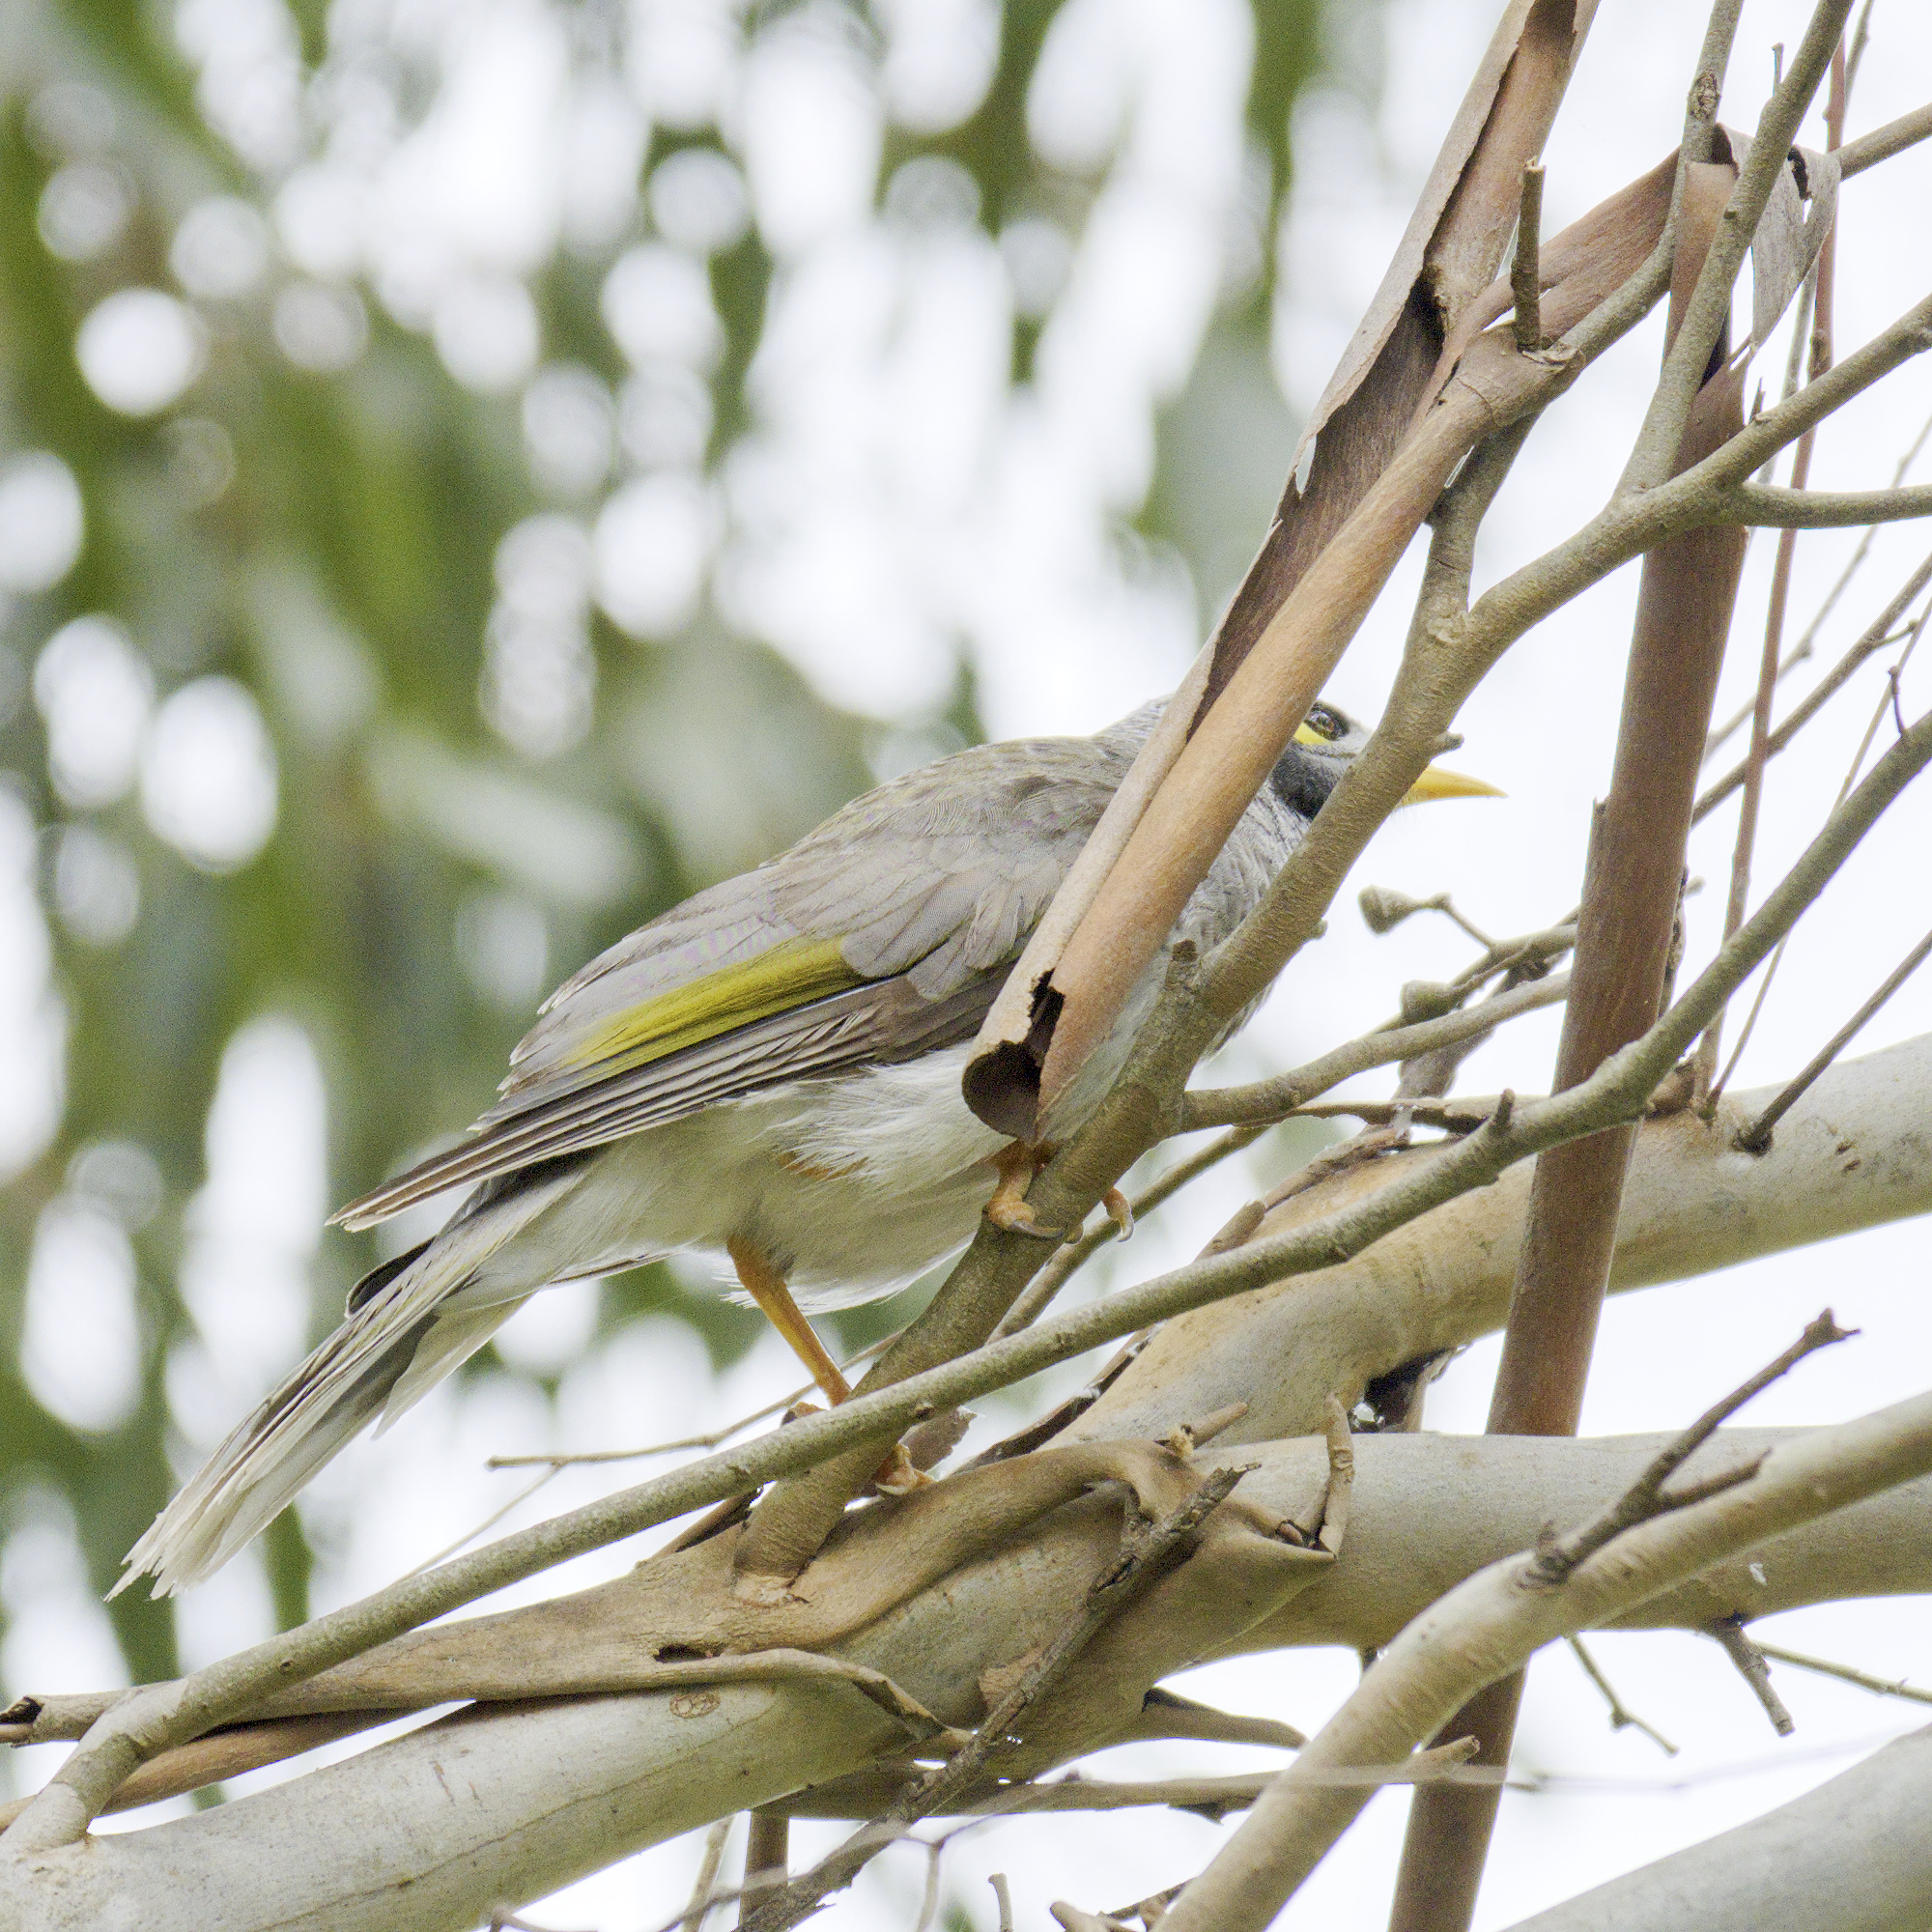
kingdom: Animalia
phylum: Chordata
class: Aves
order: Passeriformes
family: Meliphagidae
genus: Manorina
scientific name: Manorina melanocephala
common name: Noisy miner
